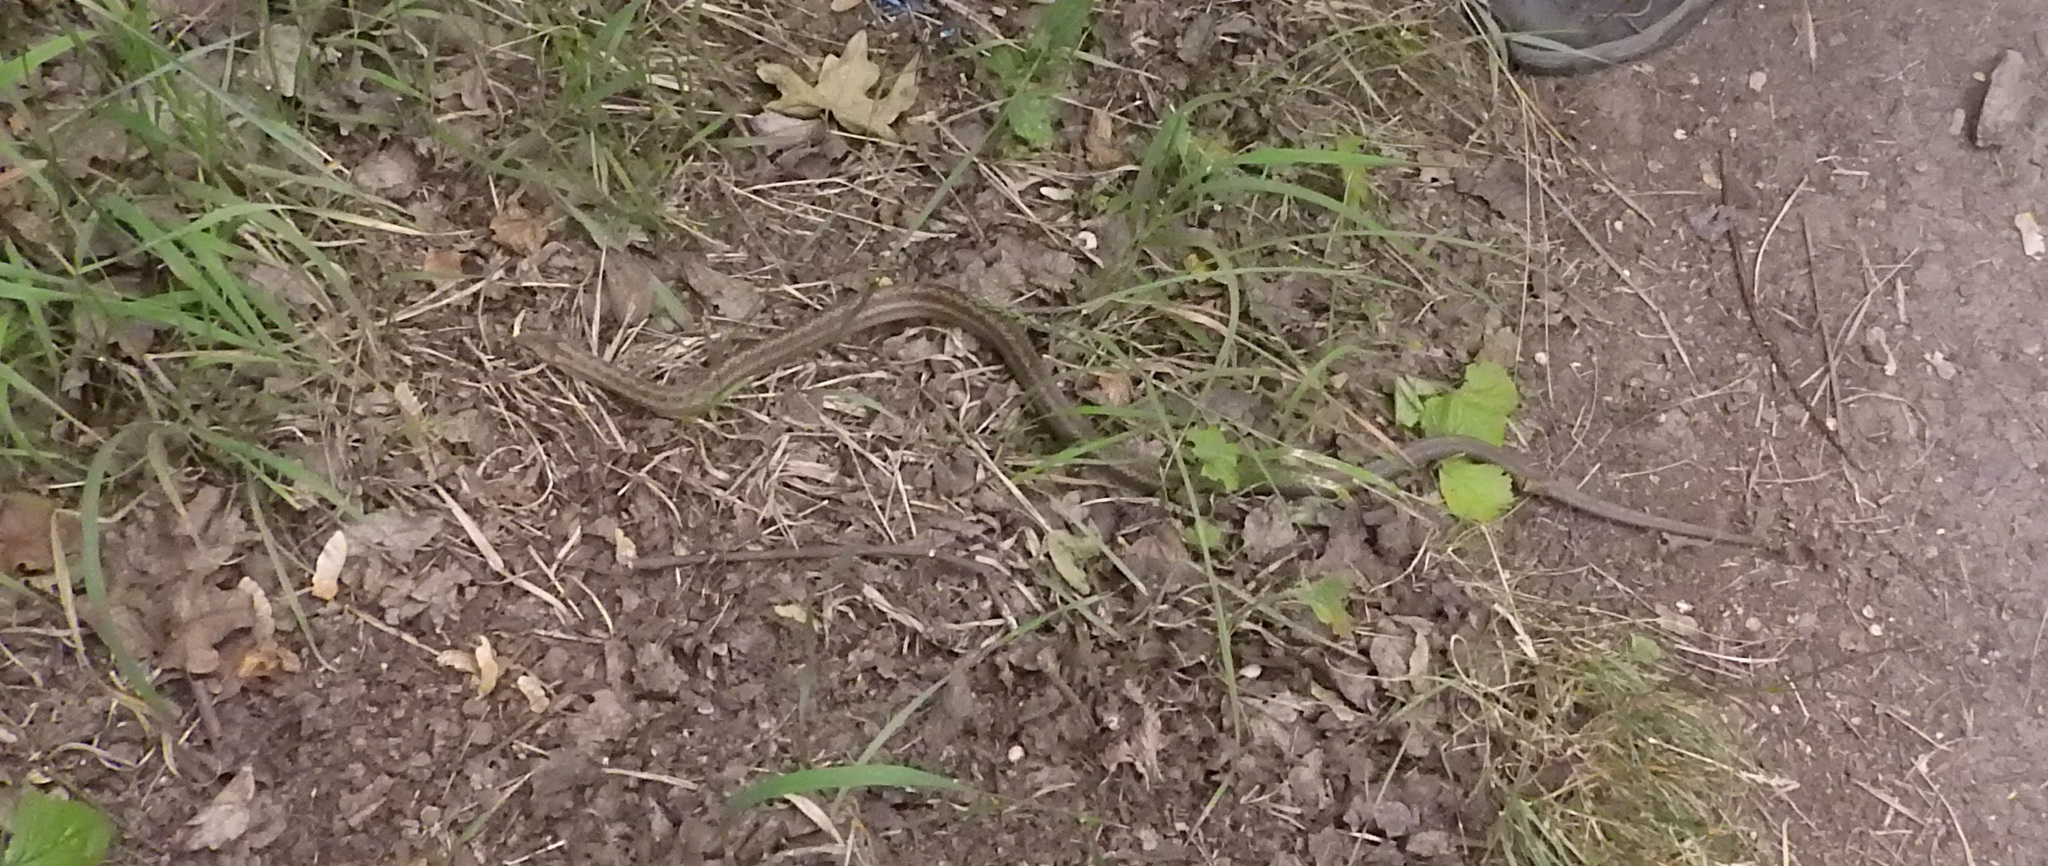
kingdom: Animalia
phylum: Chordata
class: Squamata
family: Colubridae
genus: Coronella
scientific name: Coronella austriaca
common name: Smooth snake
